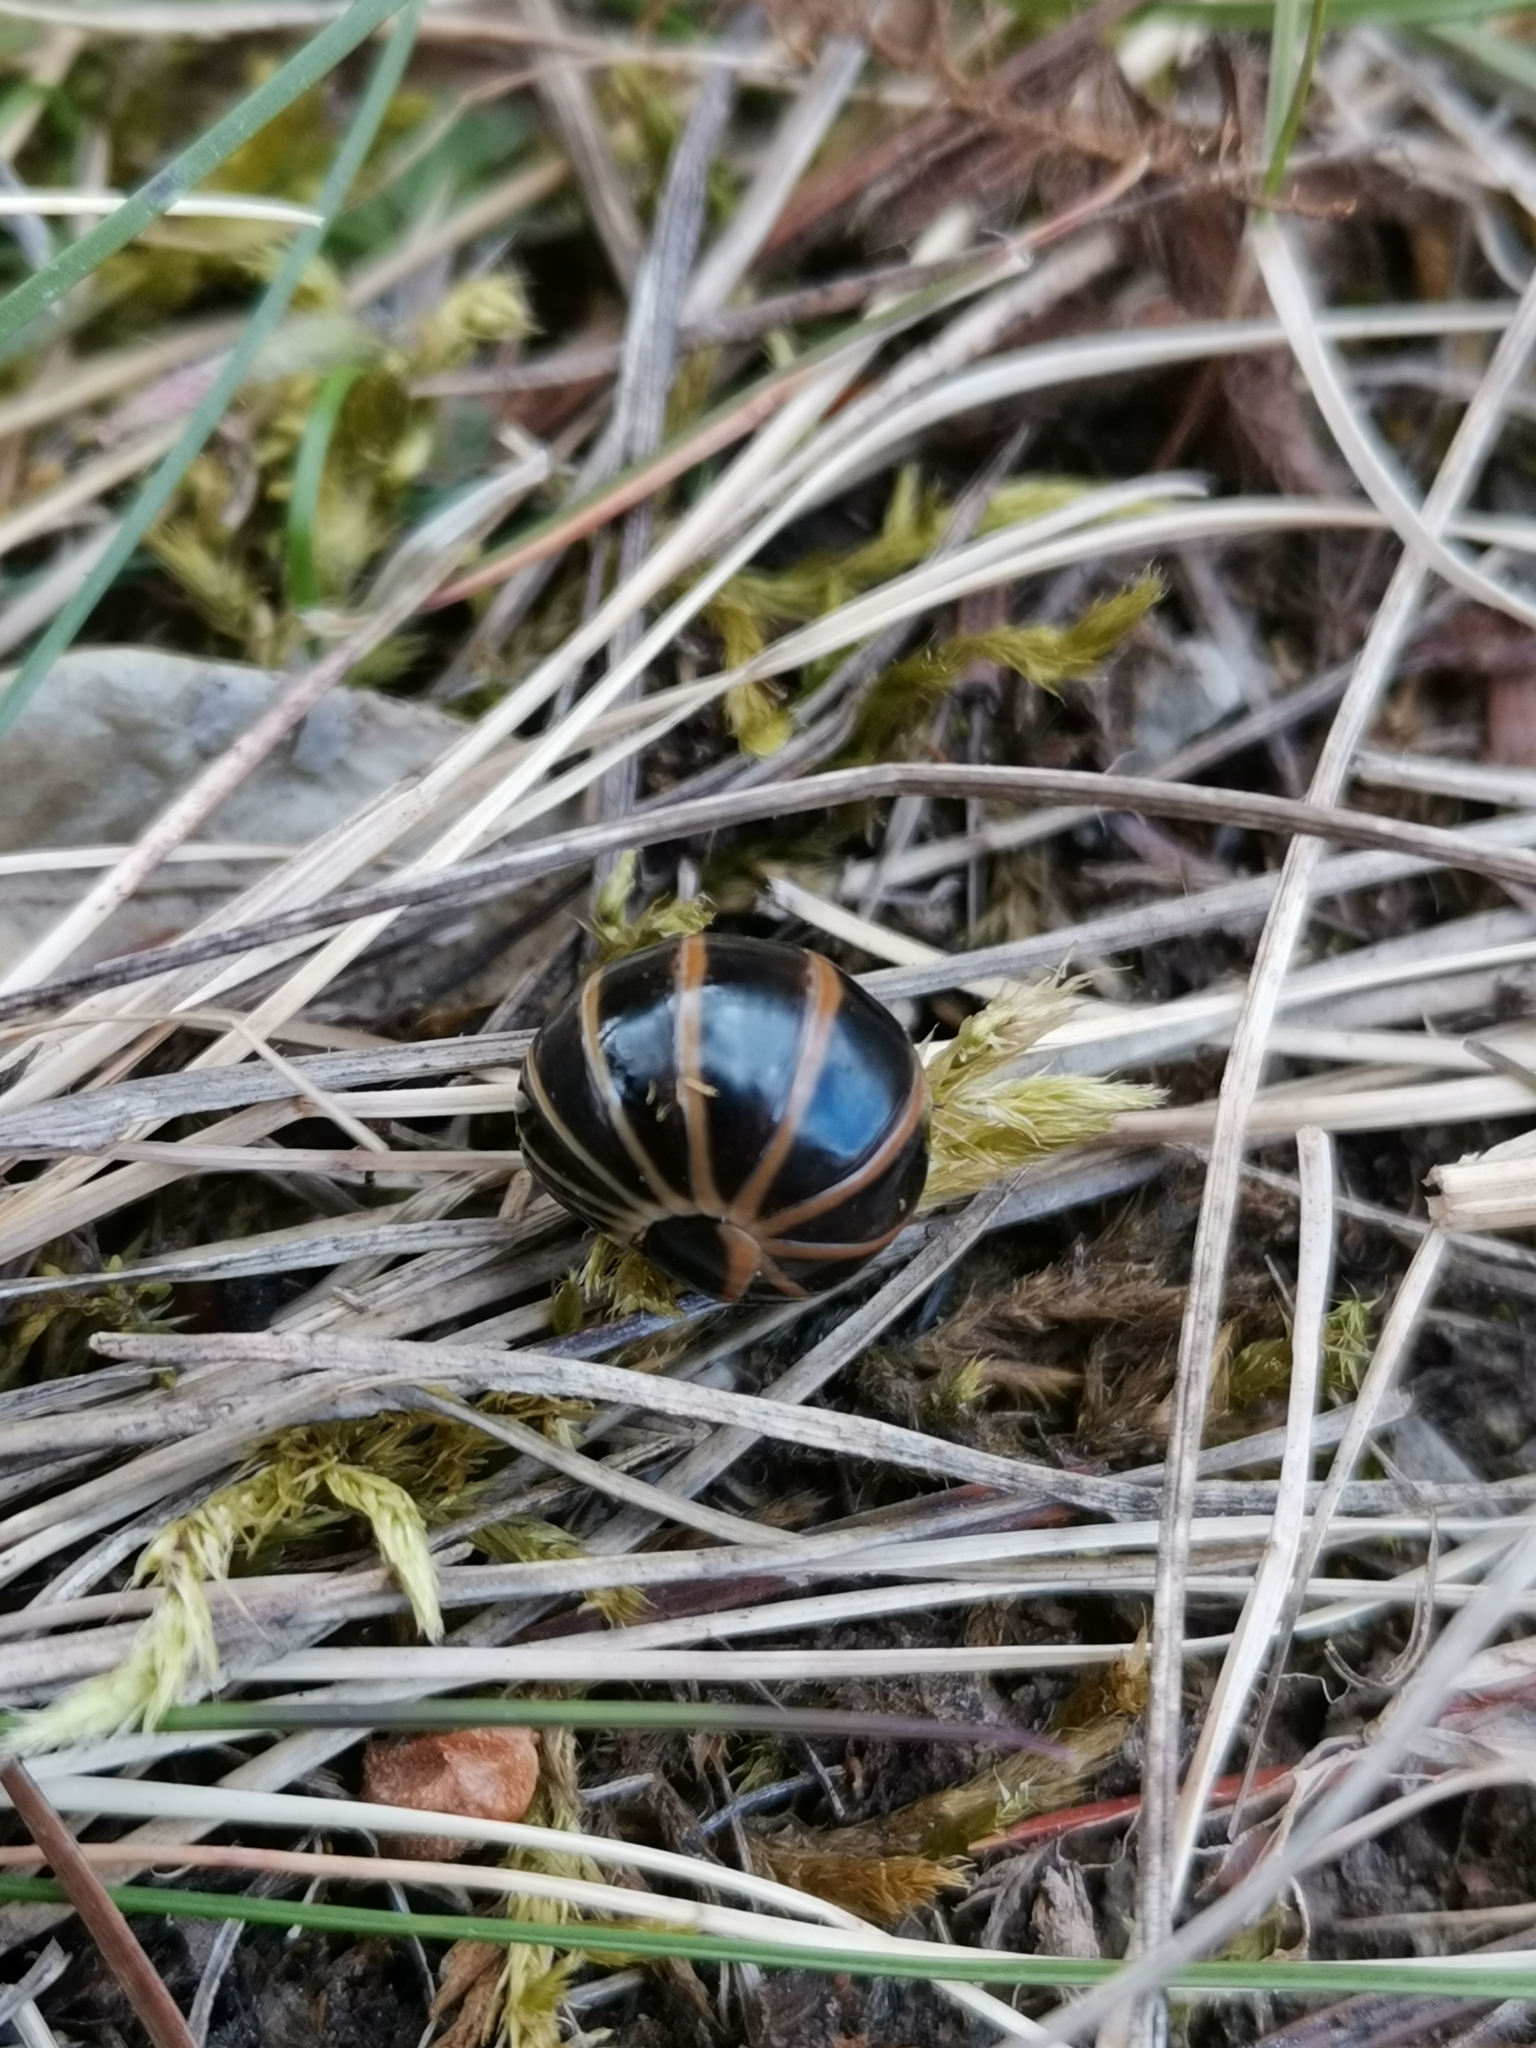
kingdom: Animalia
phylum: Arthropoda
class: Diplopoda
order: Glomerida
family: Glomeridae
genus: Glomeris
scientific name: Glomeris marginata
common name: Bordered pill millipede
